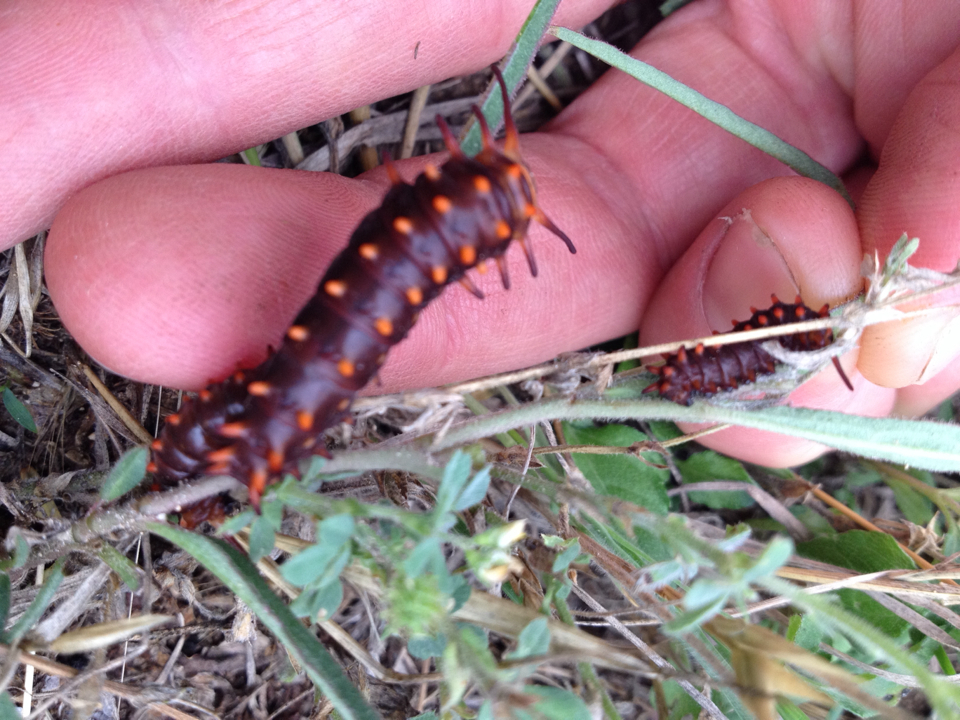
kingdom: Animalia
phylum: Arthropoda
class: Insecta
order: Lepidoptera
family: Papilionidae
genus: Battus
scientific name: Battus philenor
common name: Pipevine swallowtail
